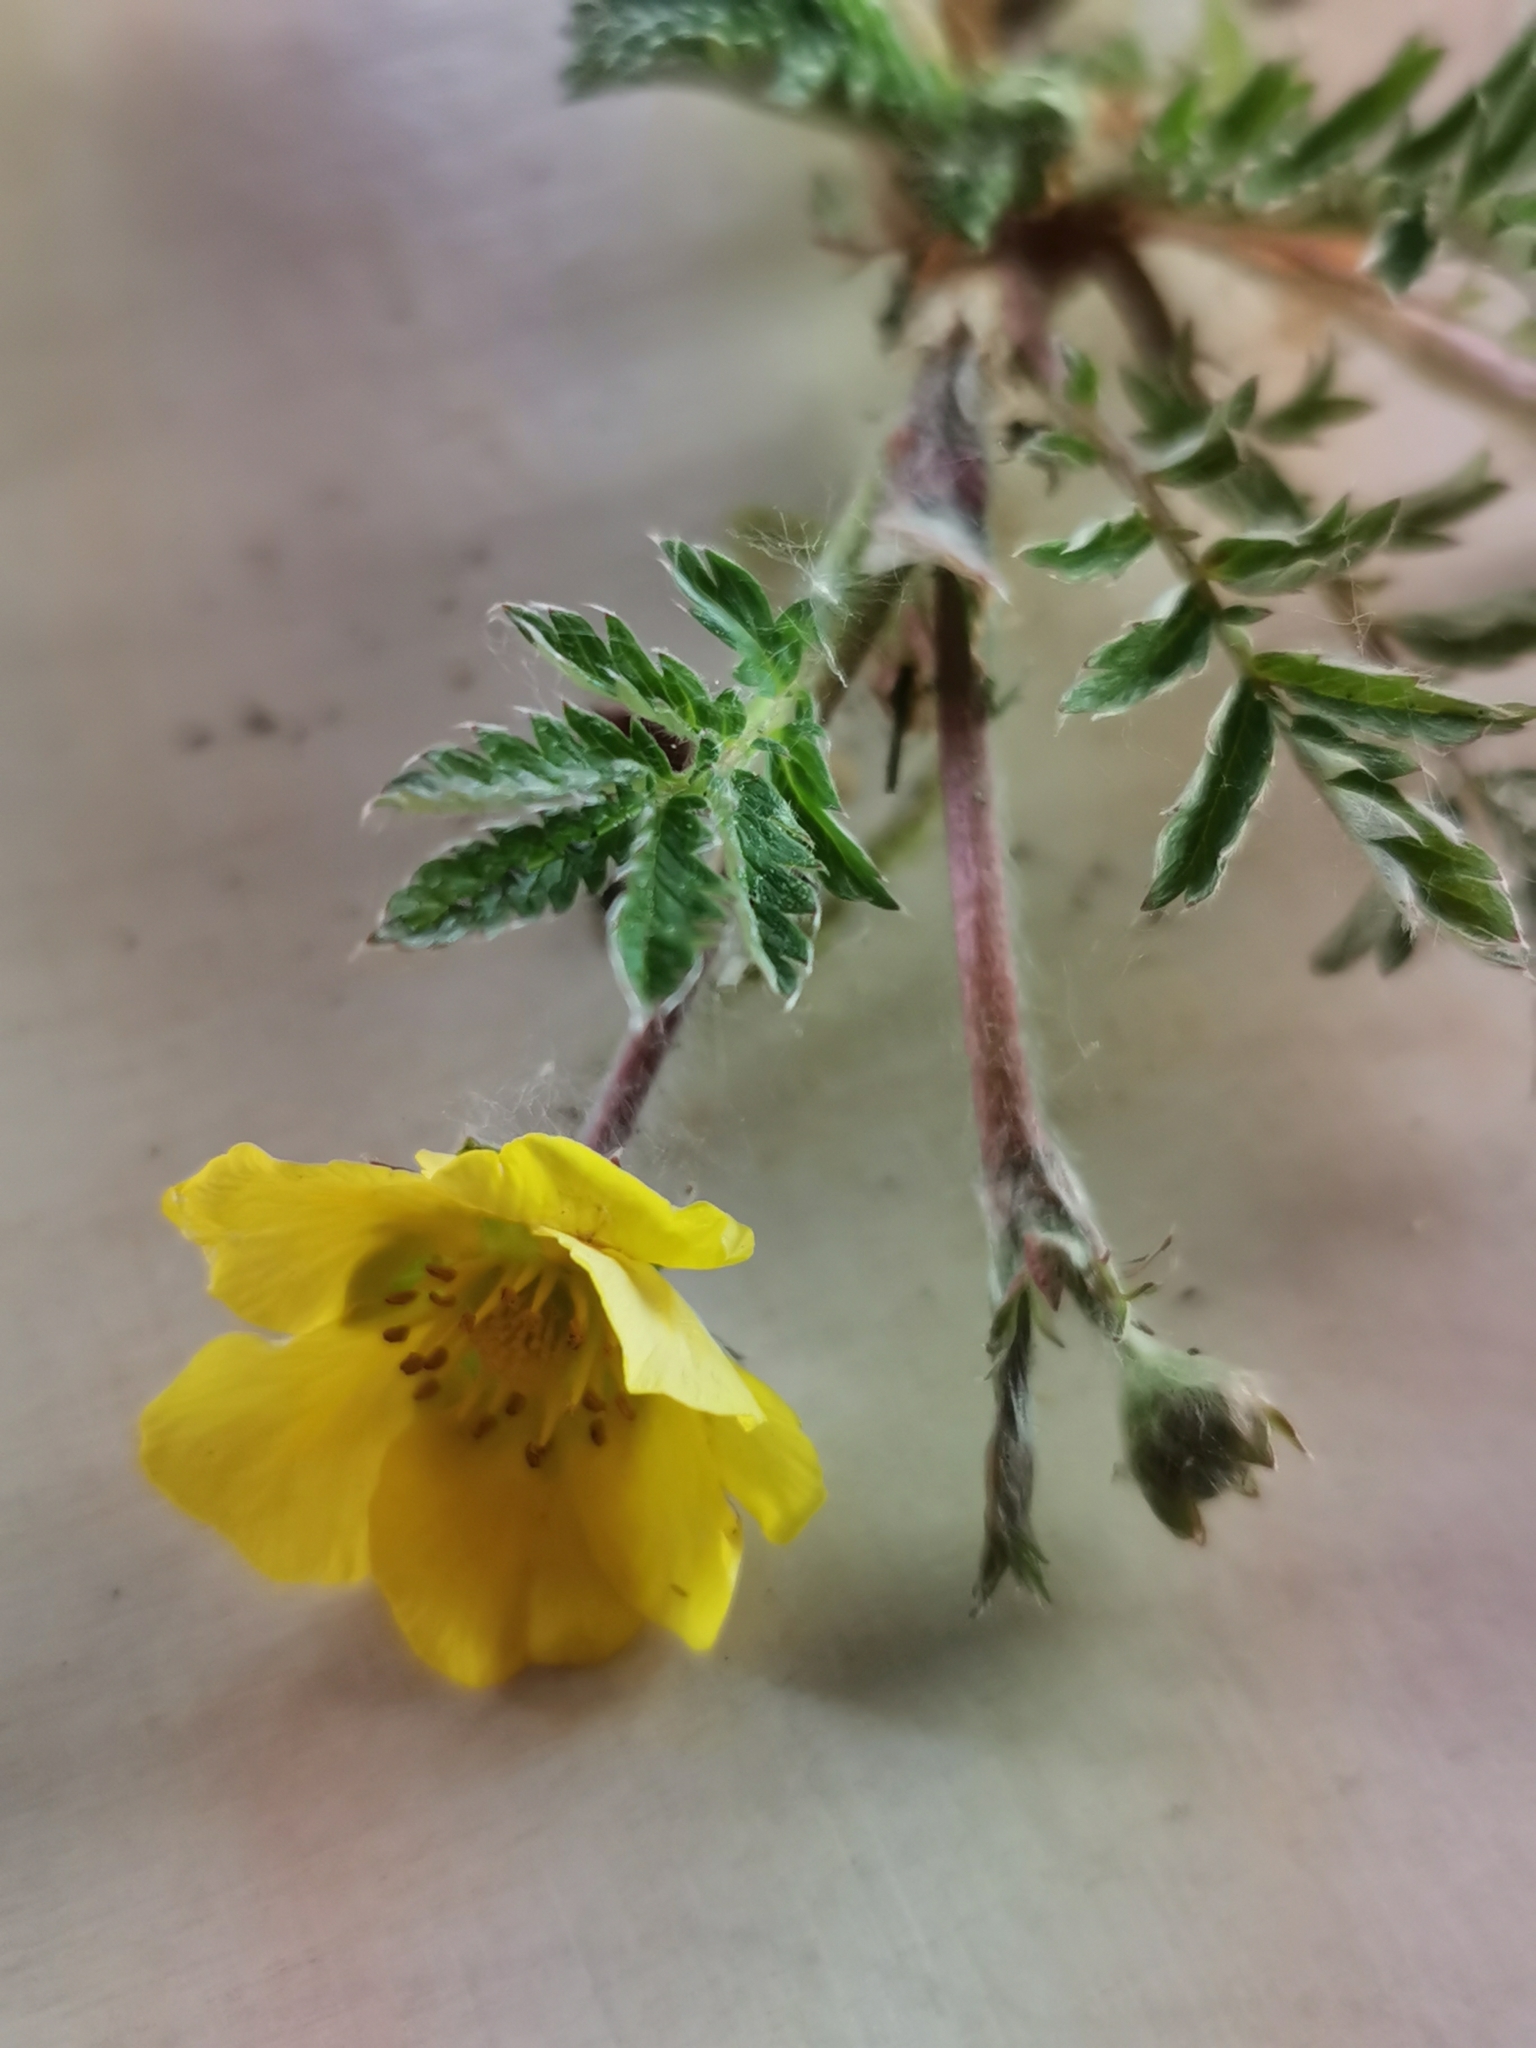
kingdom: Plantae
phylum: Tracheophyta
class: Magnoliopsida
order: Rosales
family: Rosaceae
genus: Argentina
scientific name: Argentina anserina
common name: Common silverweed
